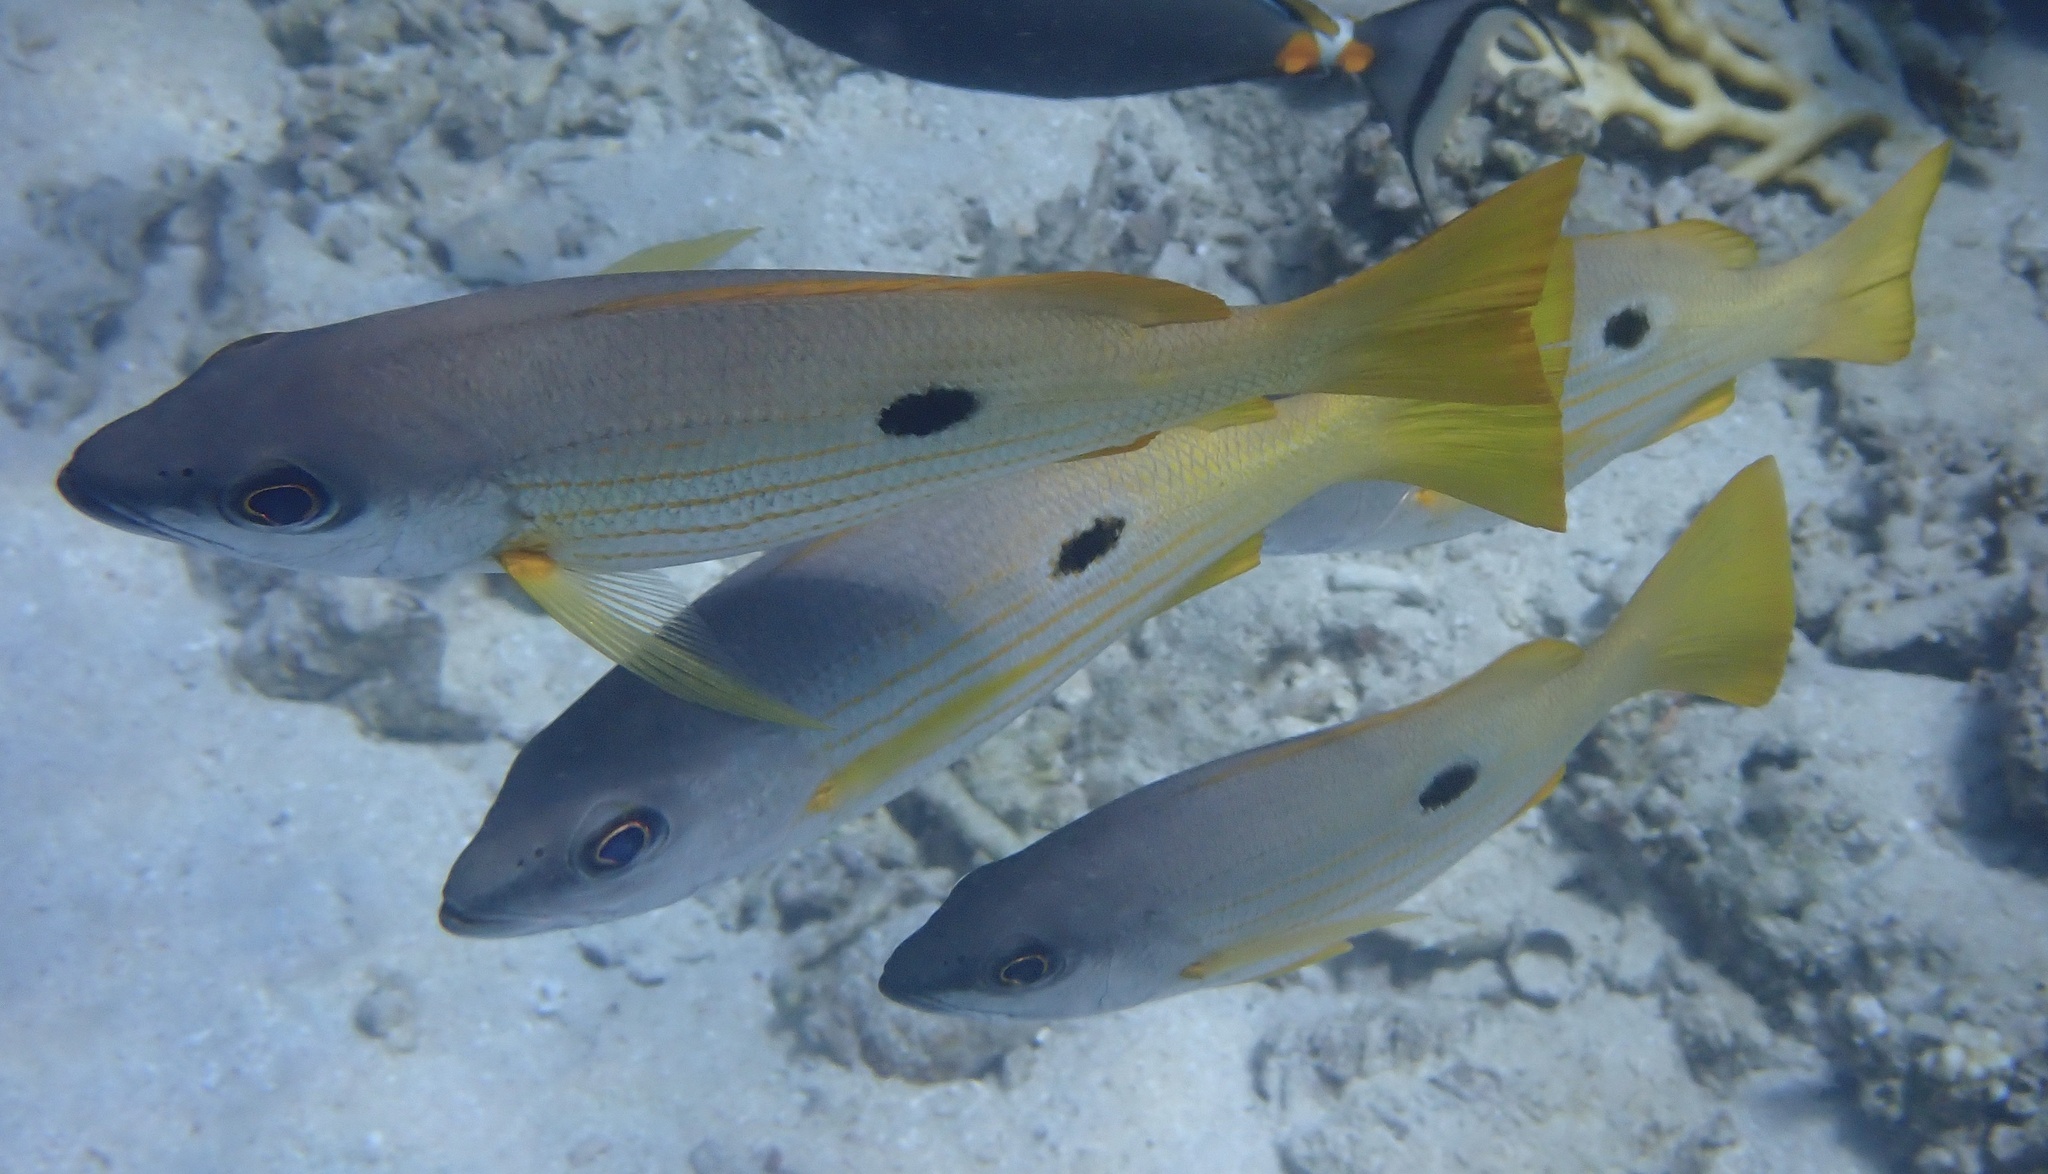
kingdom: Animalia
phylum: Chordata
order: Perciformes
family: Lutjanidae
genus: Lutjanus
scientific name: Lutjanus ehrenbergii
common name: Blackspot snapper
